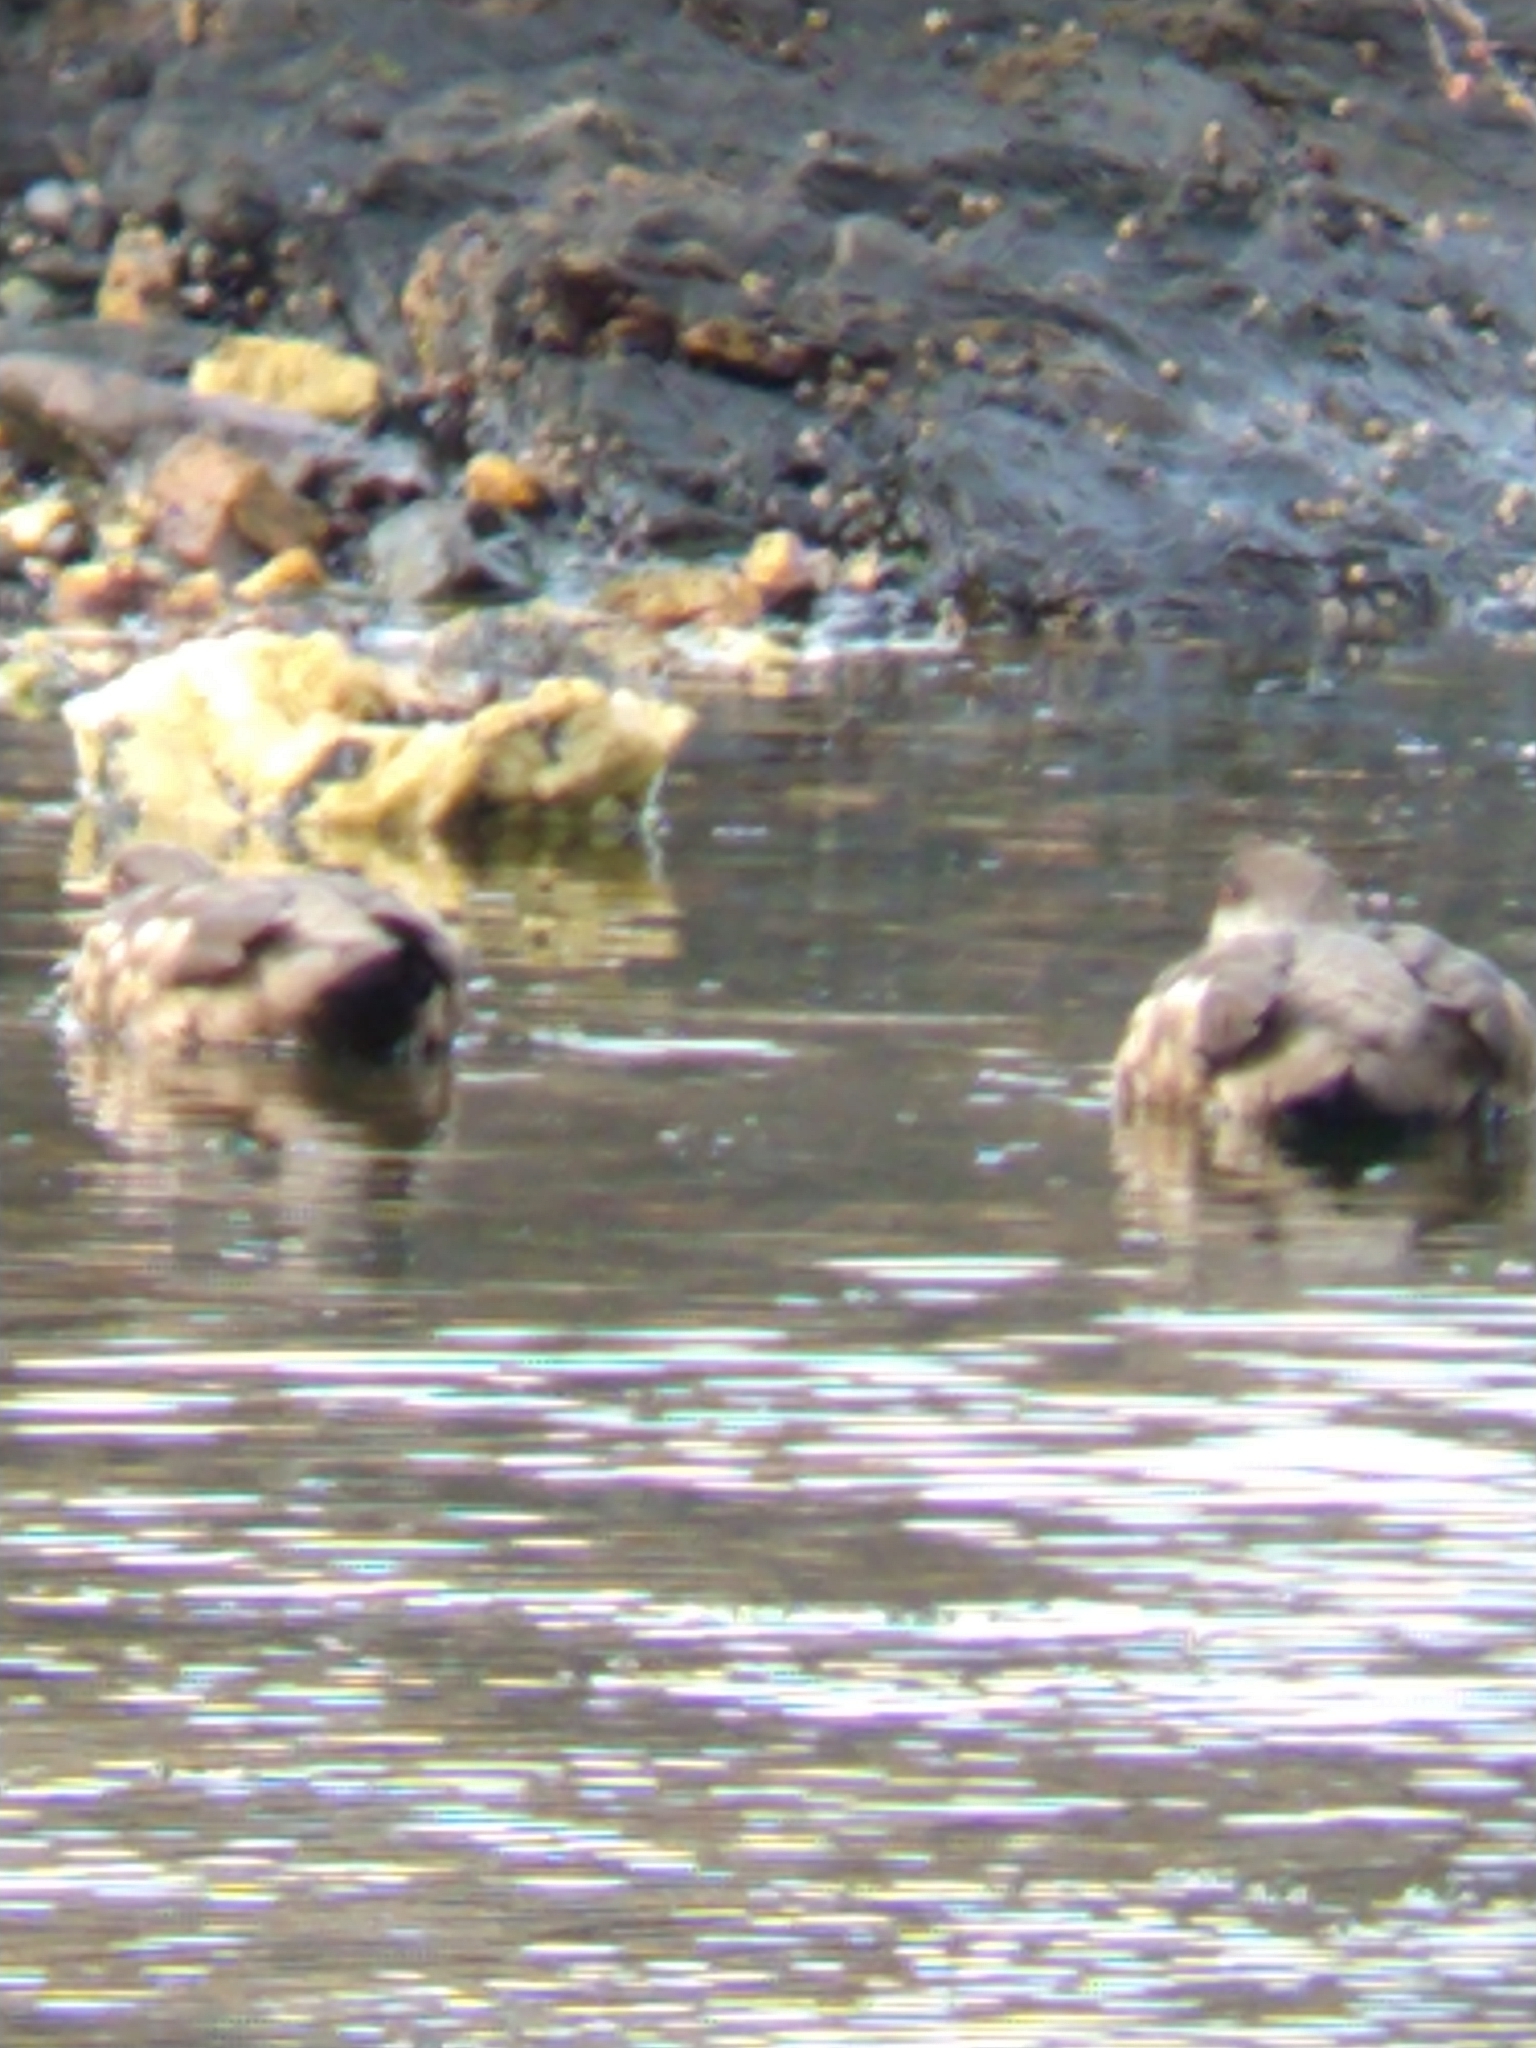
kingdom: Animalia
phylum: Chordata
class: Aves
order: Anseriformes
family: Anatidae
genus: Lophonetta
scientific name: Lophonetta specularioides
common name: Crested duck
